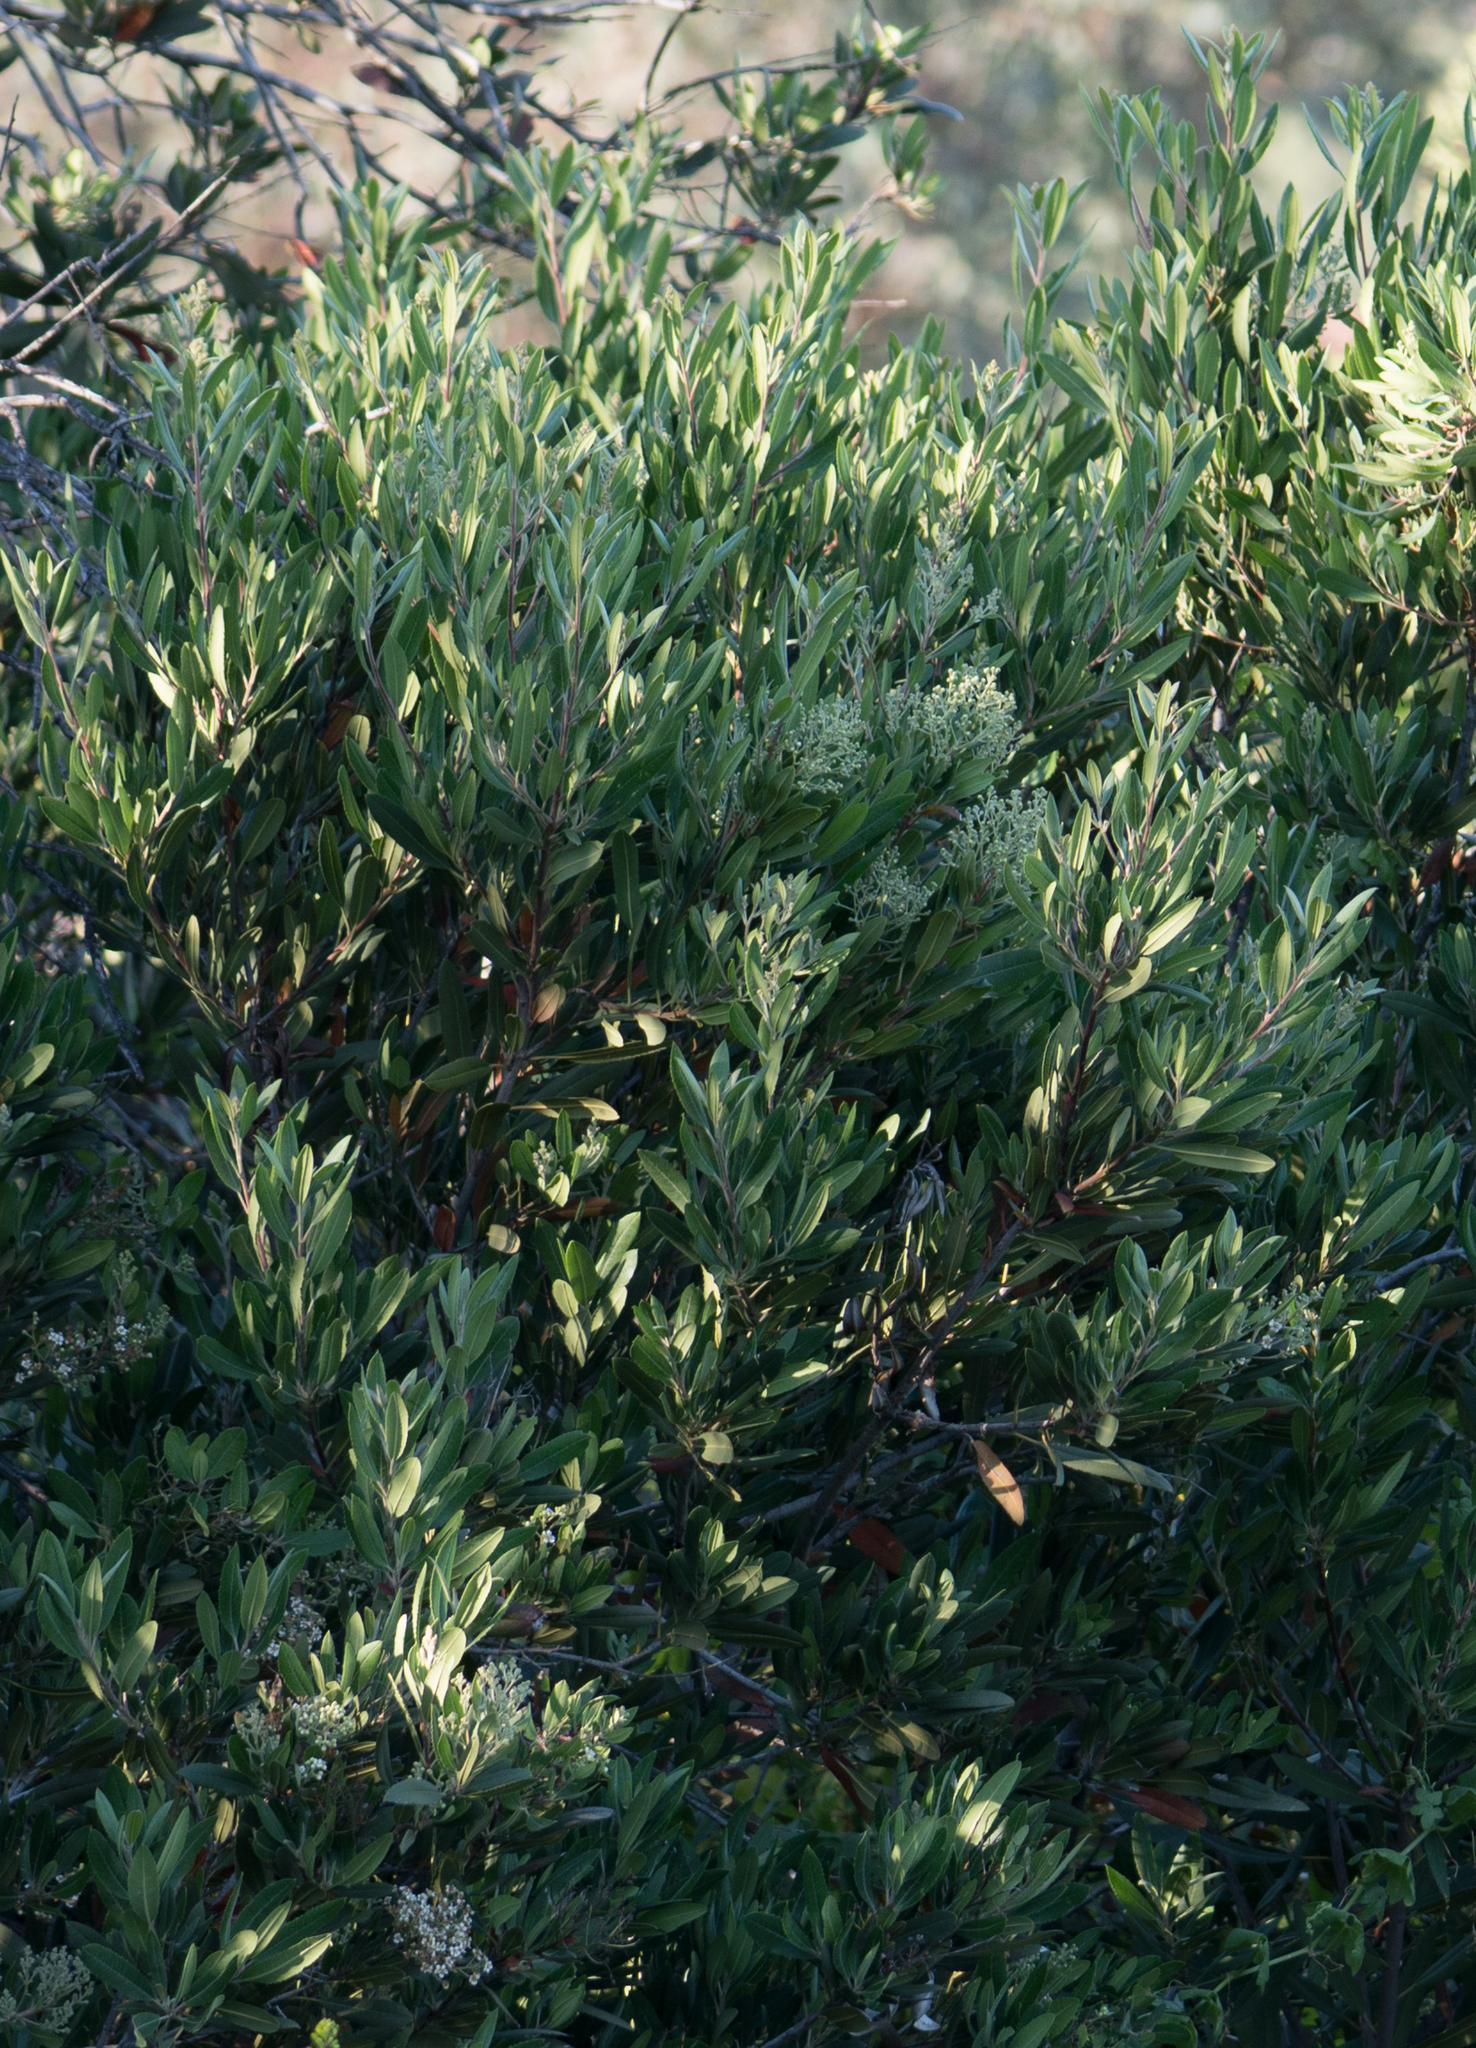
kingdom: Plantae
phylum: Tracheophyta
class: Magnoliopsida
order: Rosales
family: Rosaceae
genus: Heteromeles
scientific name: Heteromeles arbutifolia
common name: California-holly
